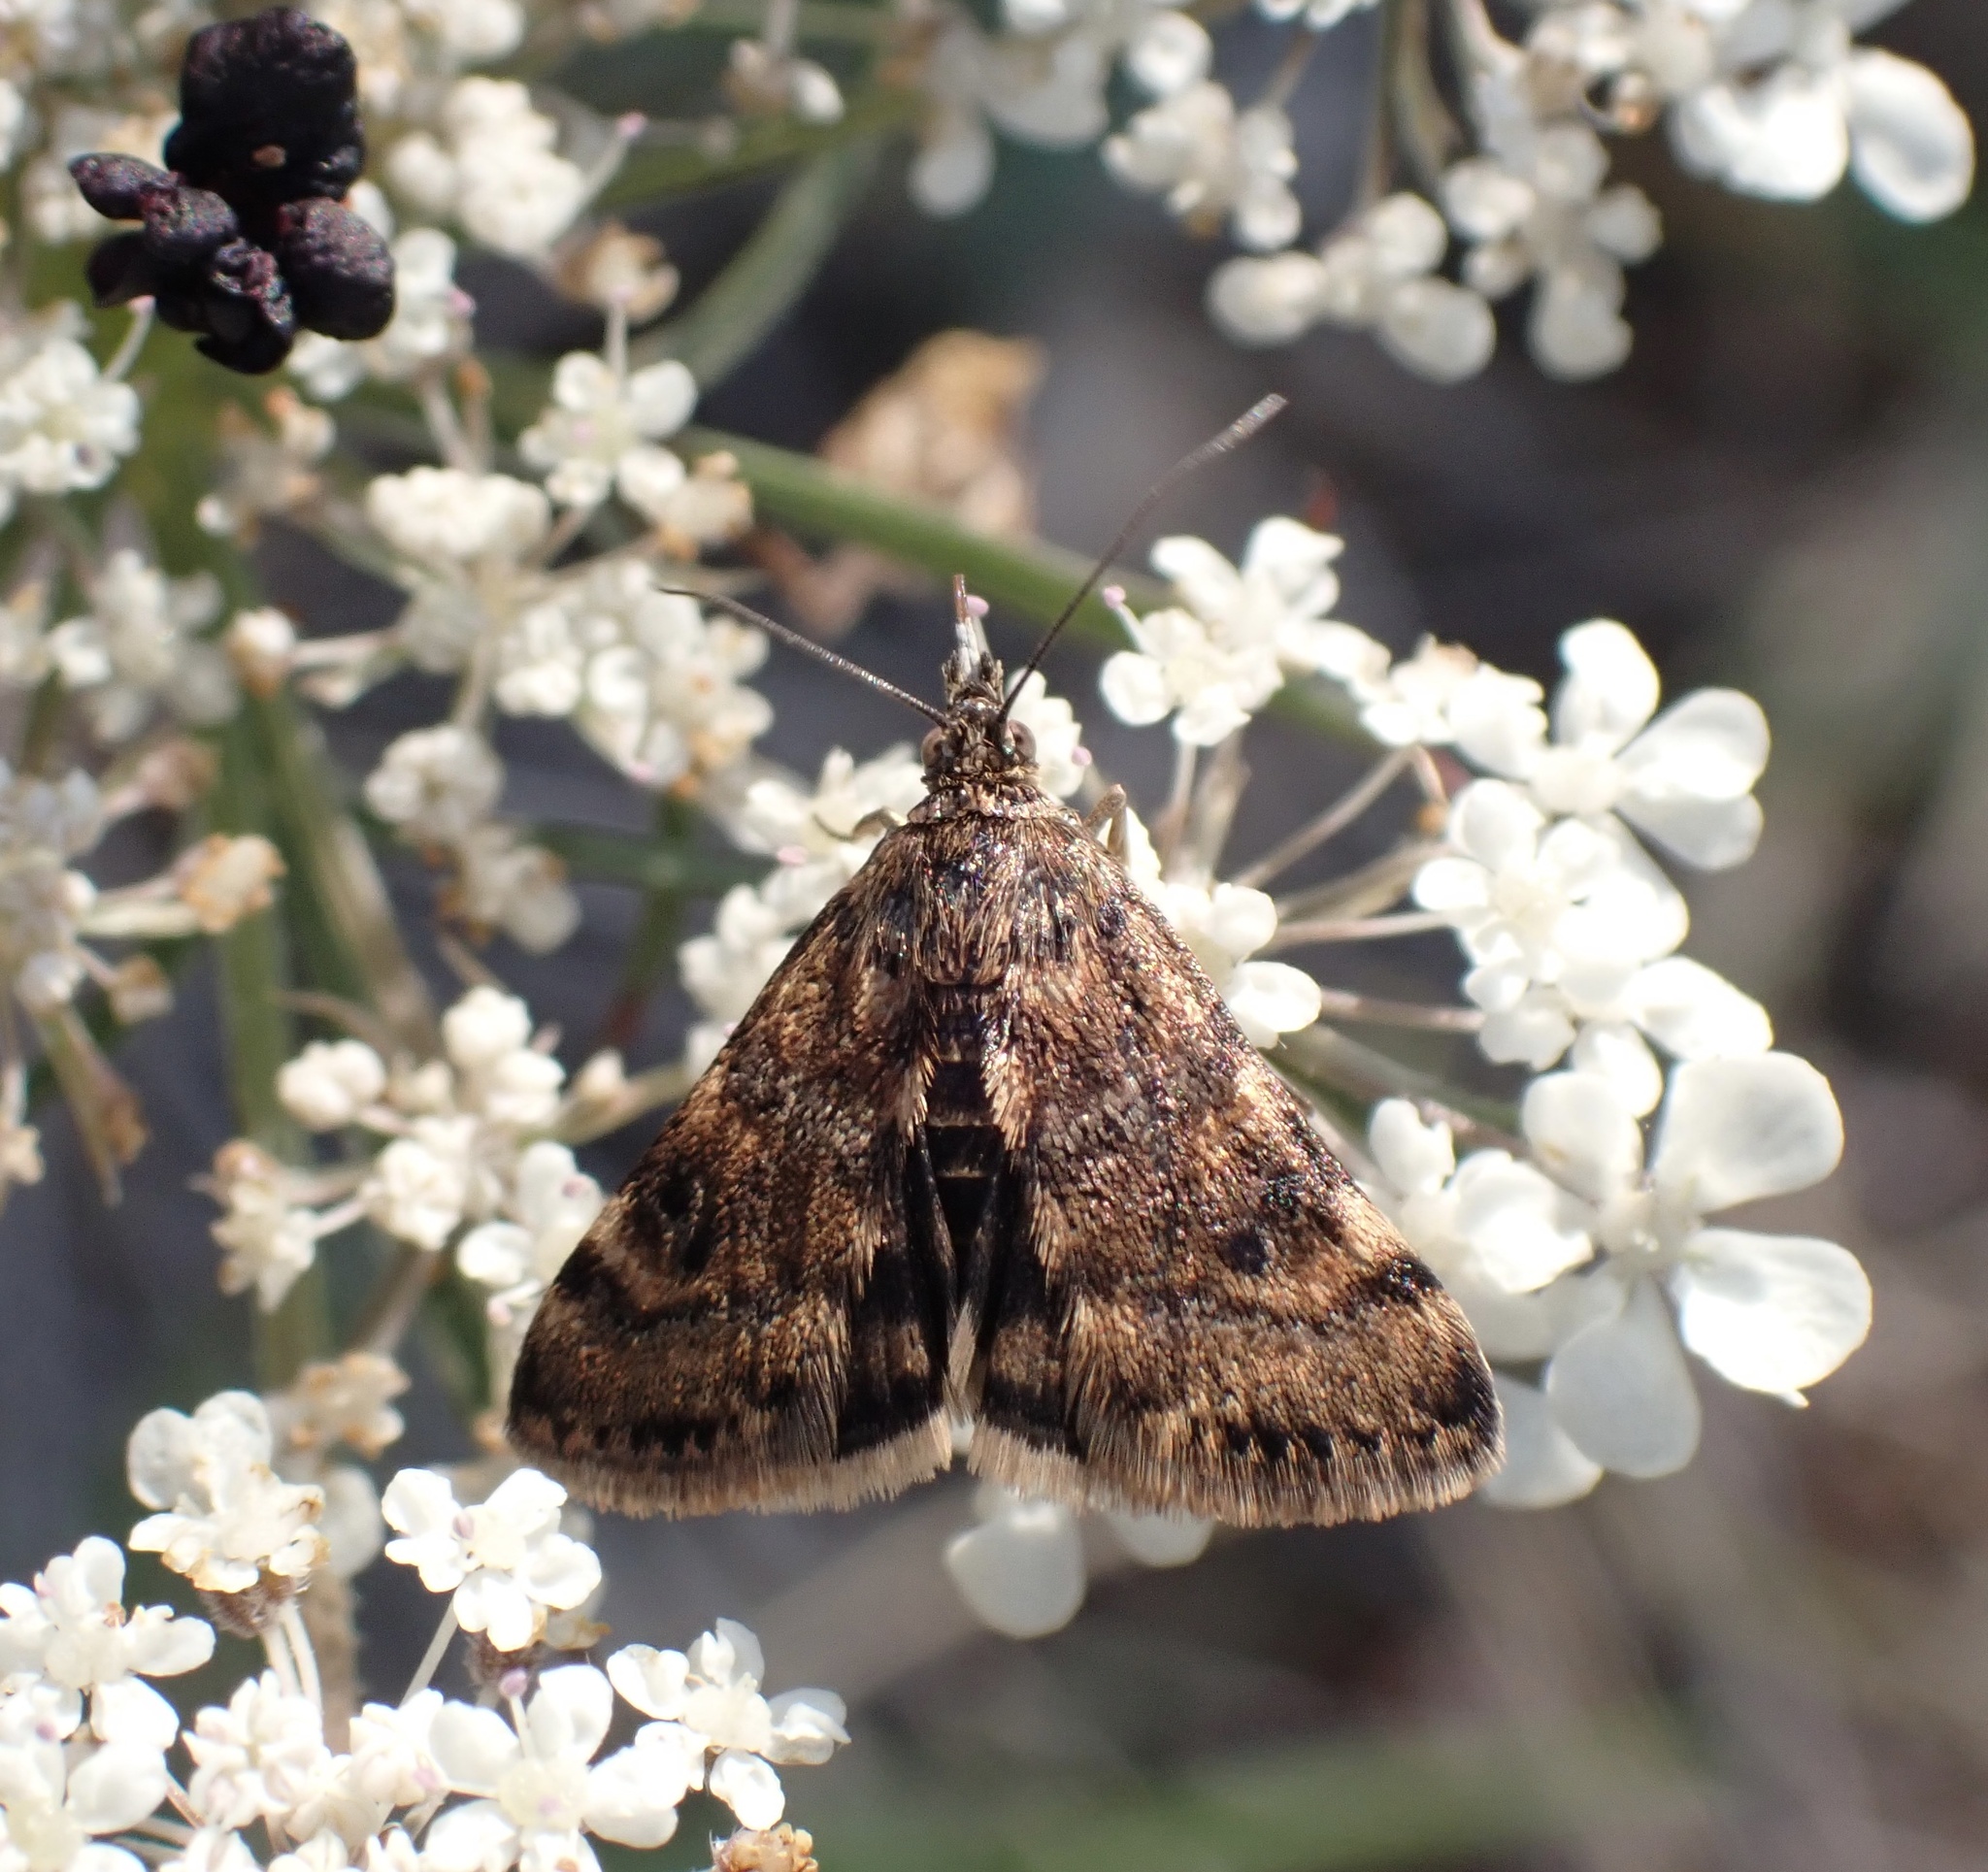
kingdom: Animalia
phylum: Arthropoda
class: Insecta
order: Lepidoptera
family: Crambidae
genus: Noctuelia
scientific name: Noctuelia Aporodes floralis
